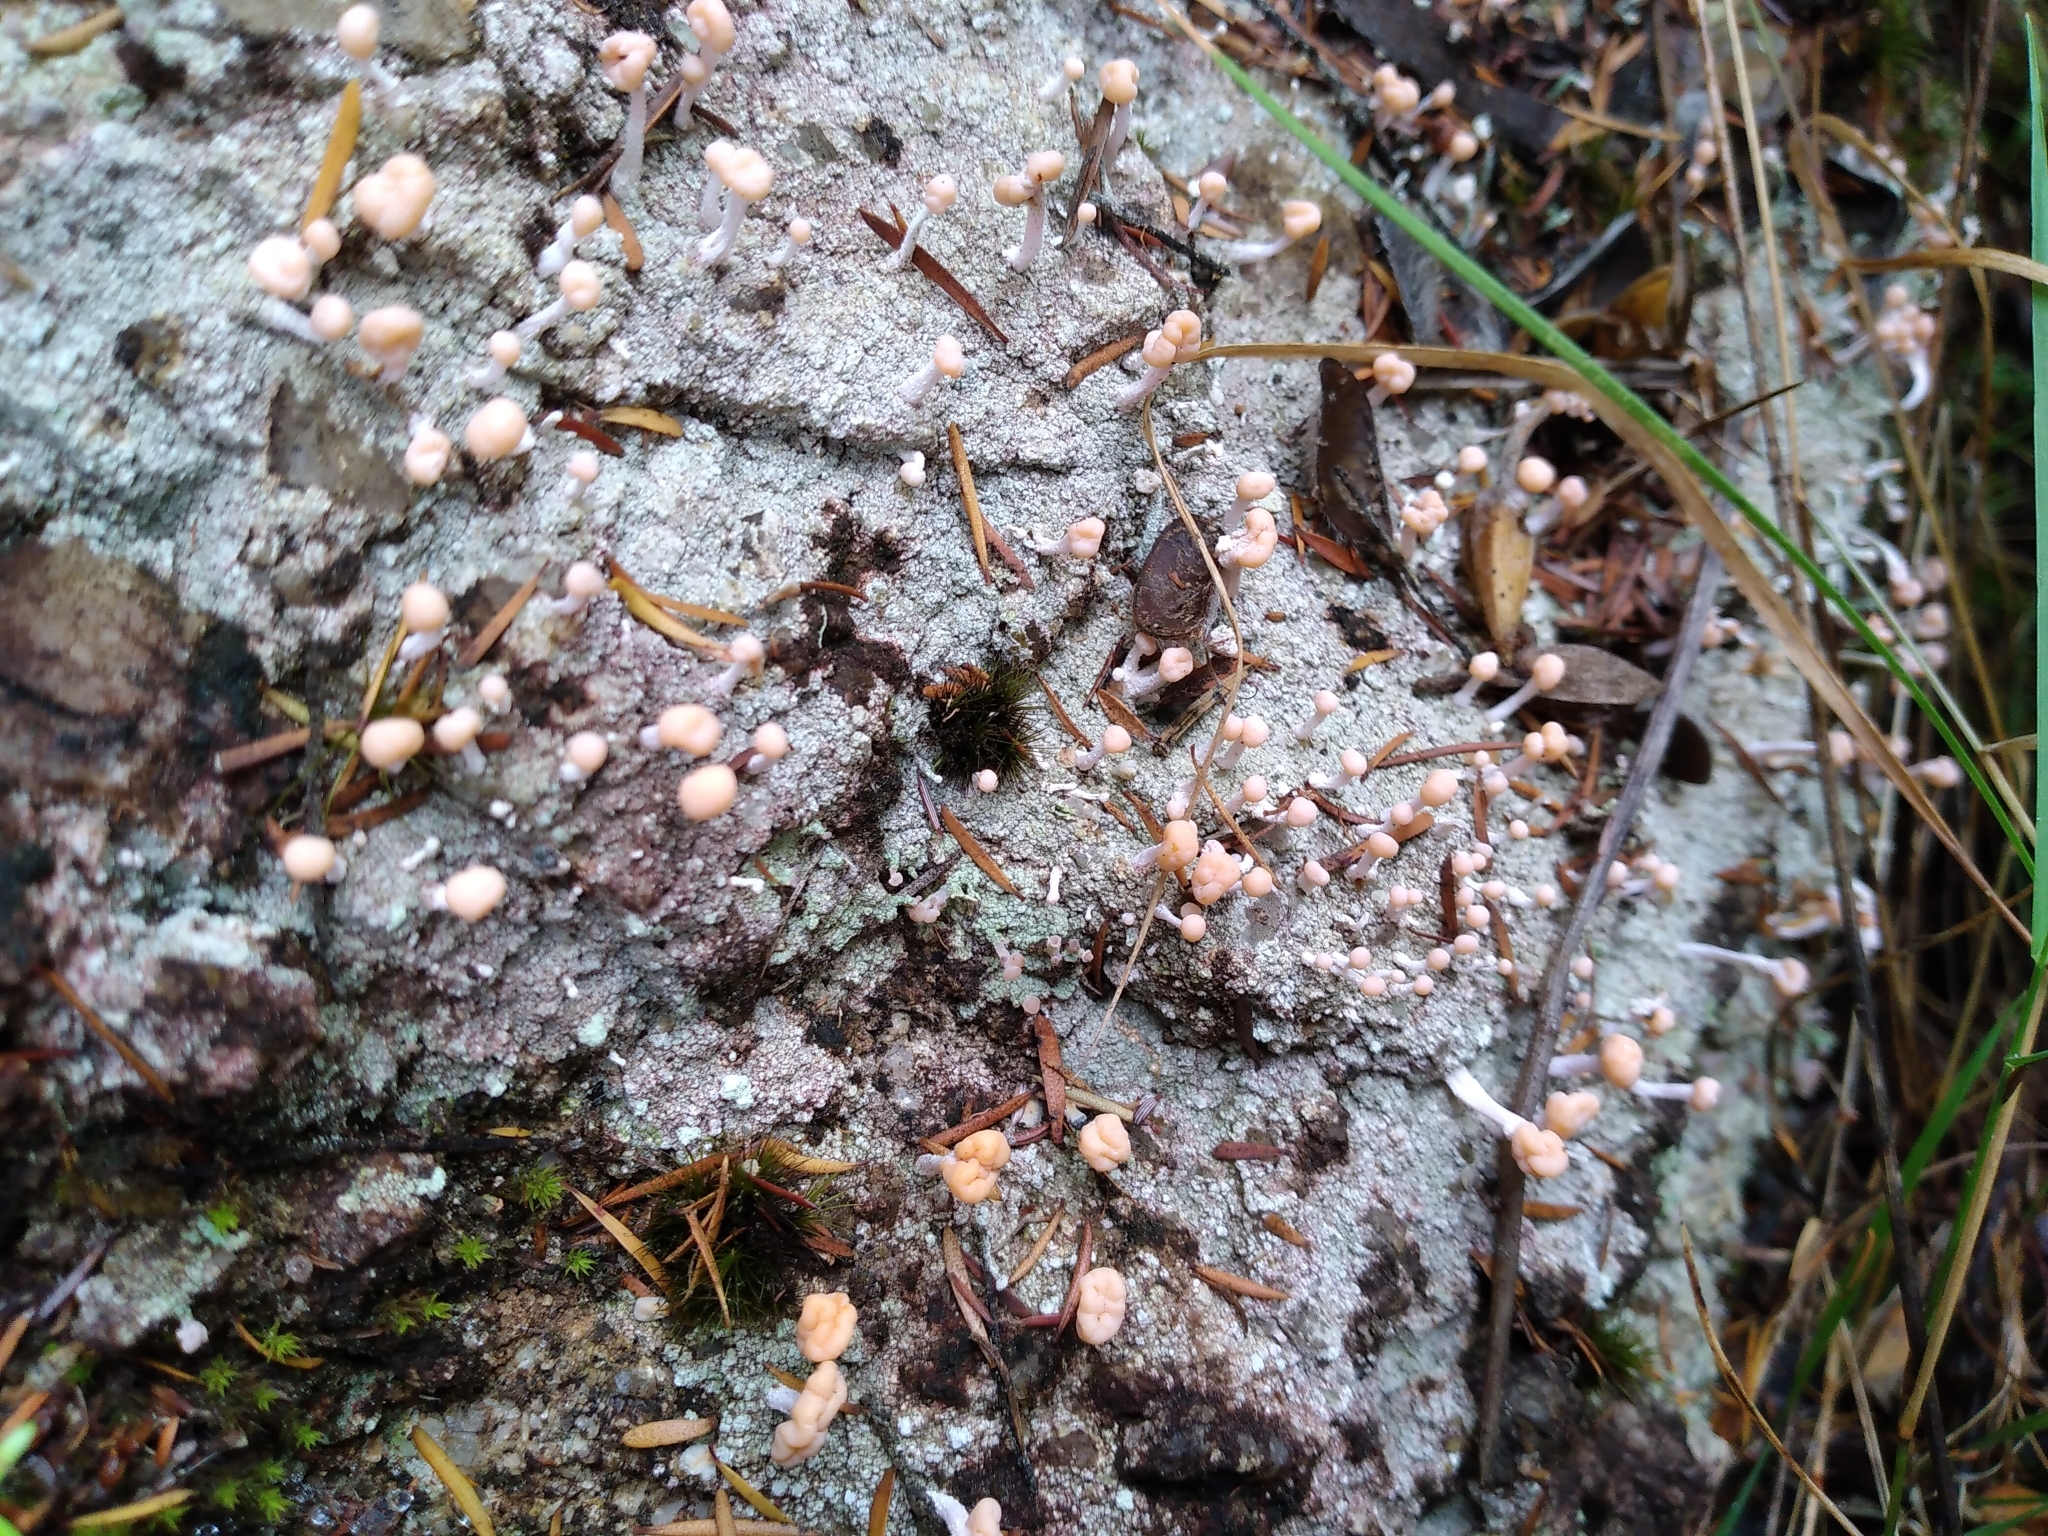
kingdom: Fungi
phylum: Ascomycota
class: Lecanoromycetes
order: Pertusariales
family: Icmadophilaceae
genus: Dibaeis
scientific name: Dibaeis arcuata
